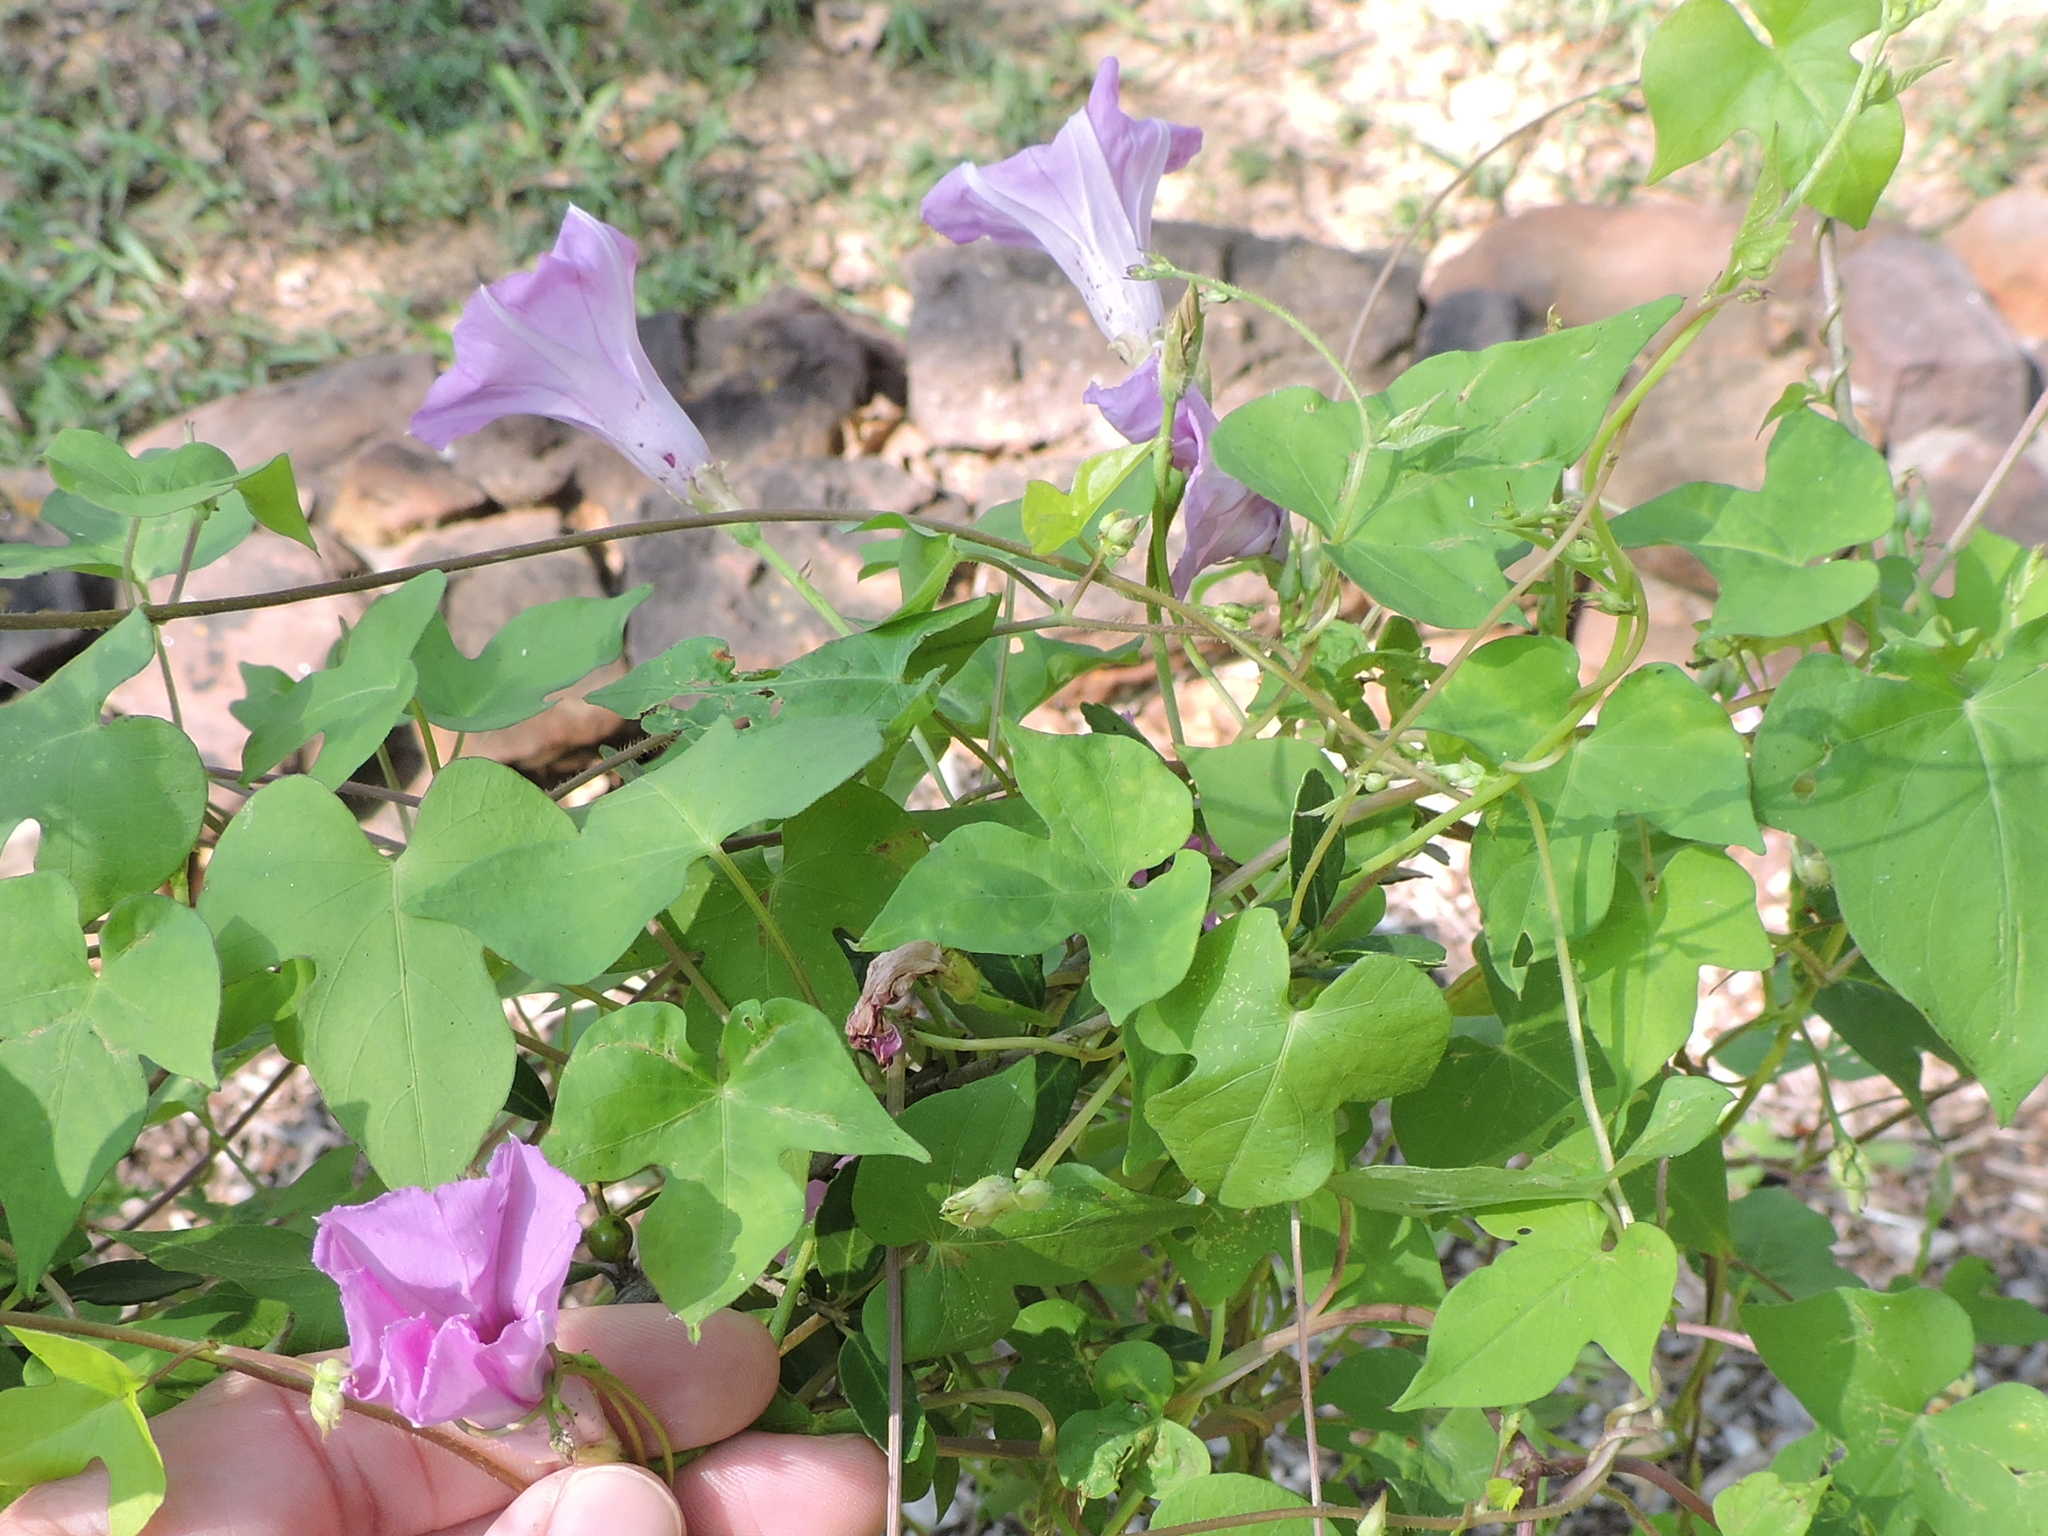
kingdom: Plantae
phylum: Tracheophyta
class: Magnoliopsida
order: Solanales
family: Convolvulaceae
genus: Ipomoea
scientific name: Ipomoea cordatotriloba
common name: Cotton morning glory
